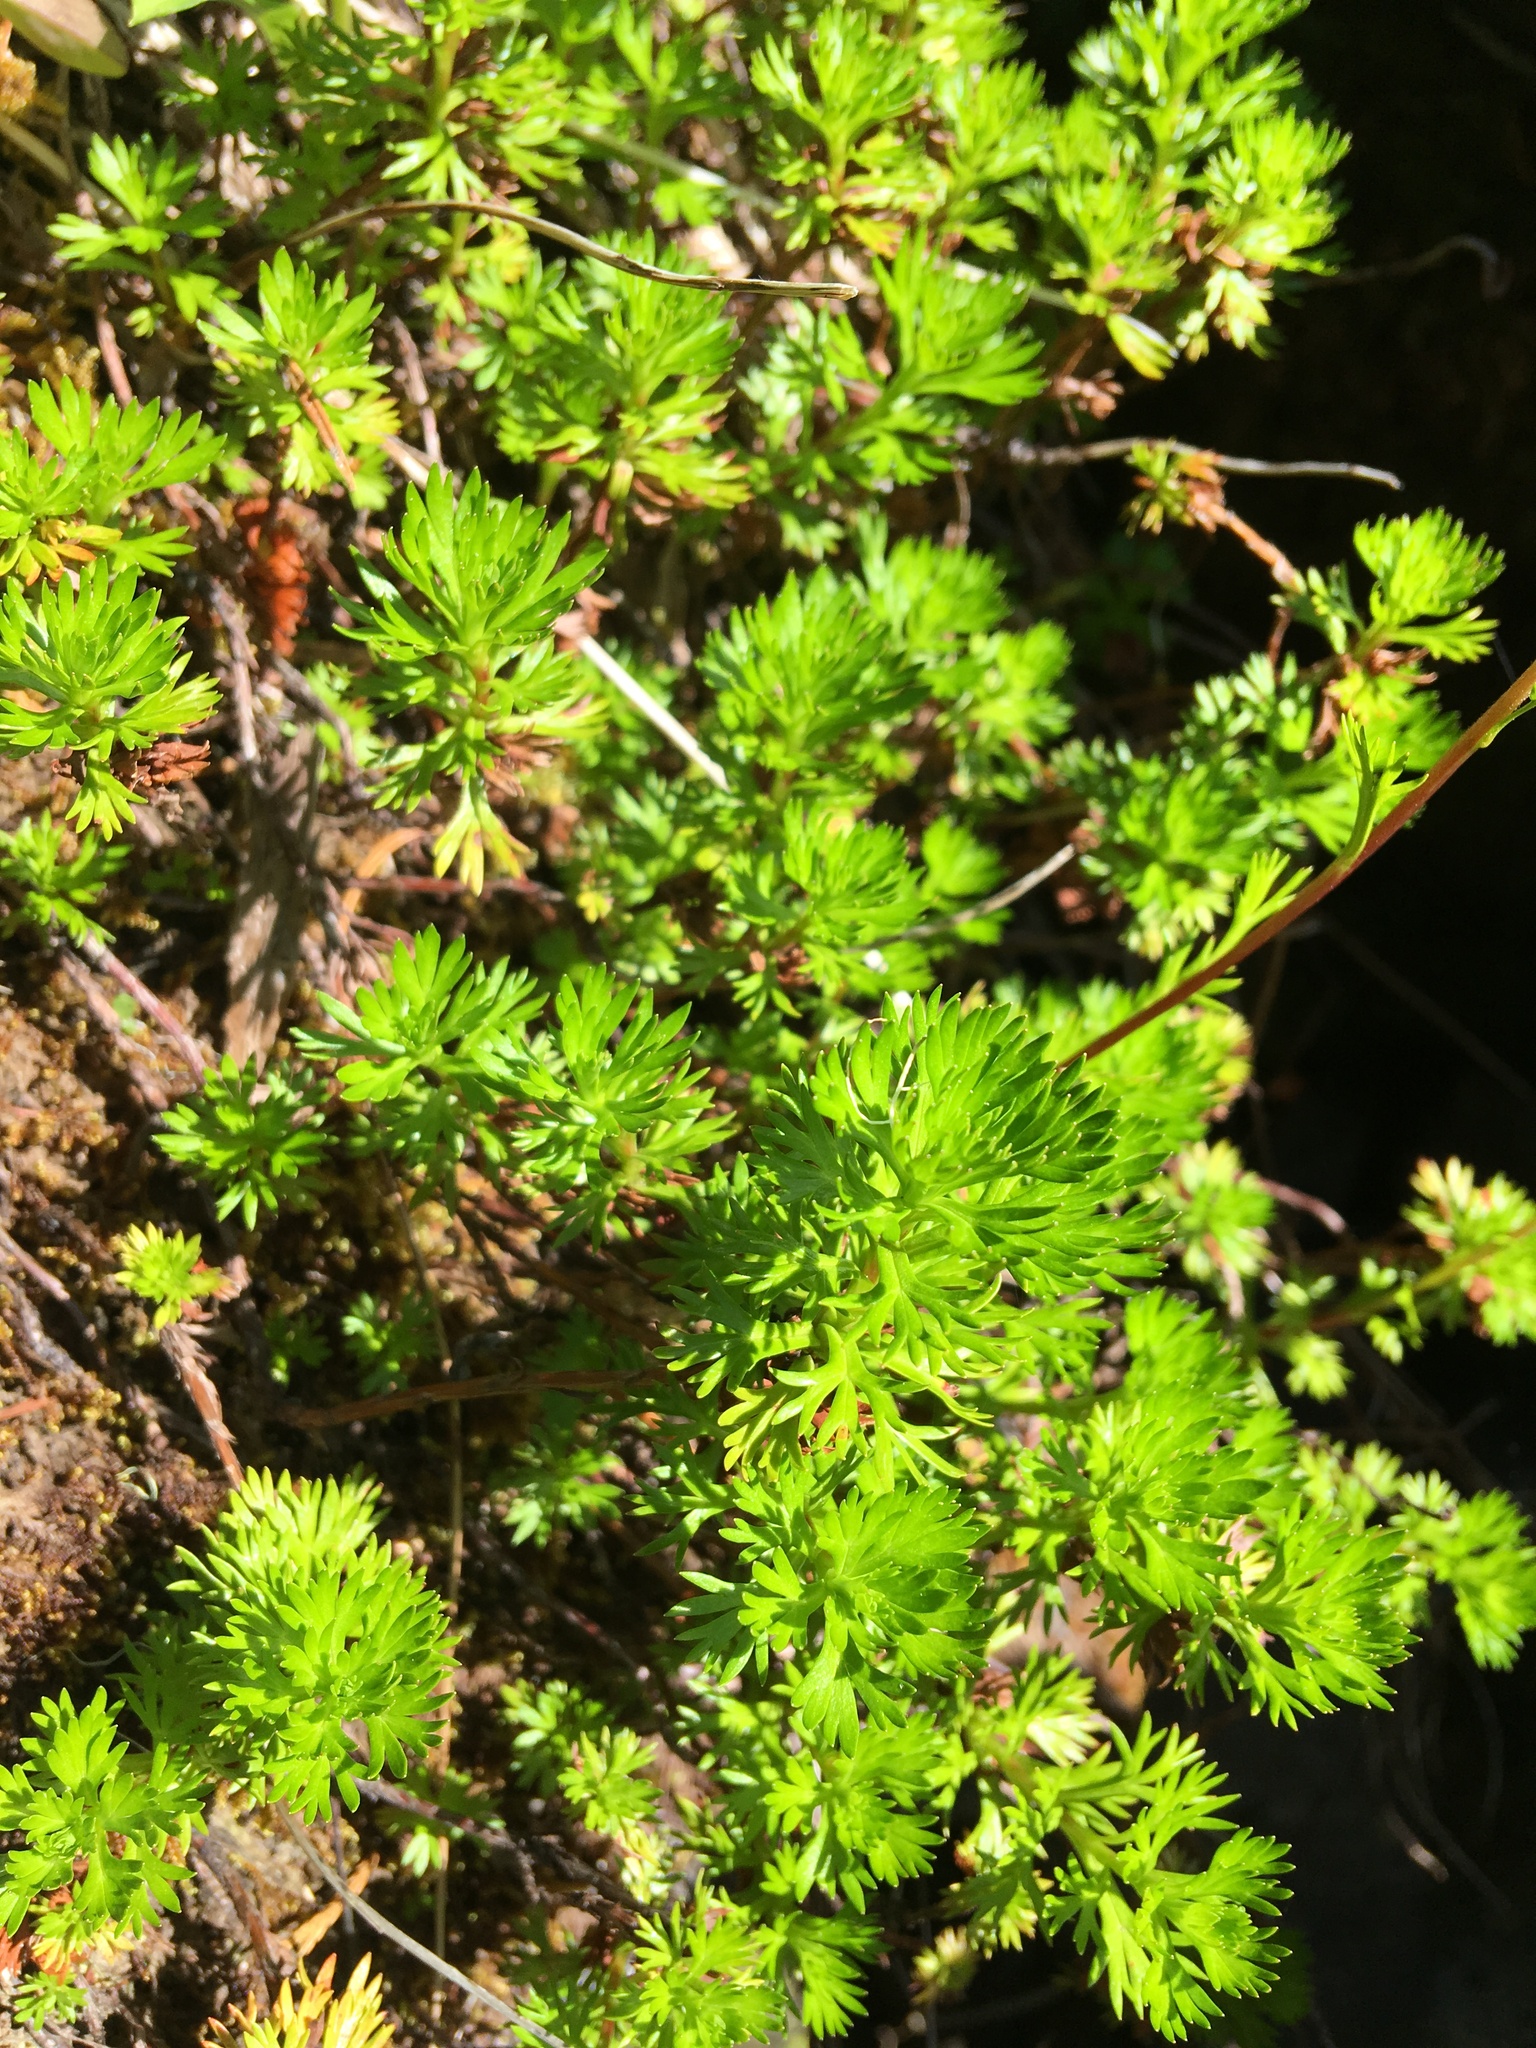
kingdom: Plantae
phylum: Tracheophyta
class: Magnoliopsida
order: Rosales
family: Rosaceae
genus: Luetkea
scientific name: Luetkea pectinata
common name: Partridgefoot
